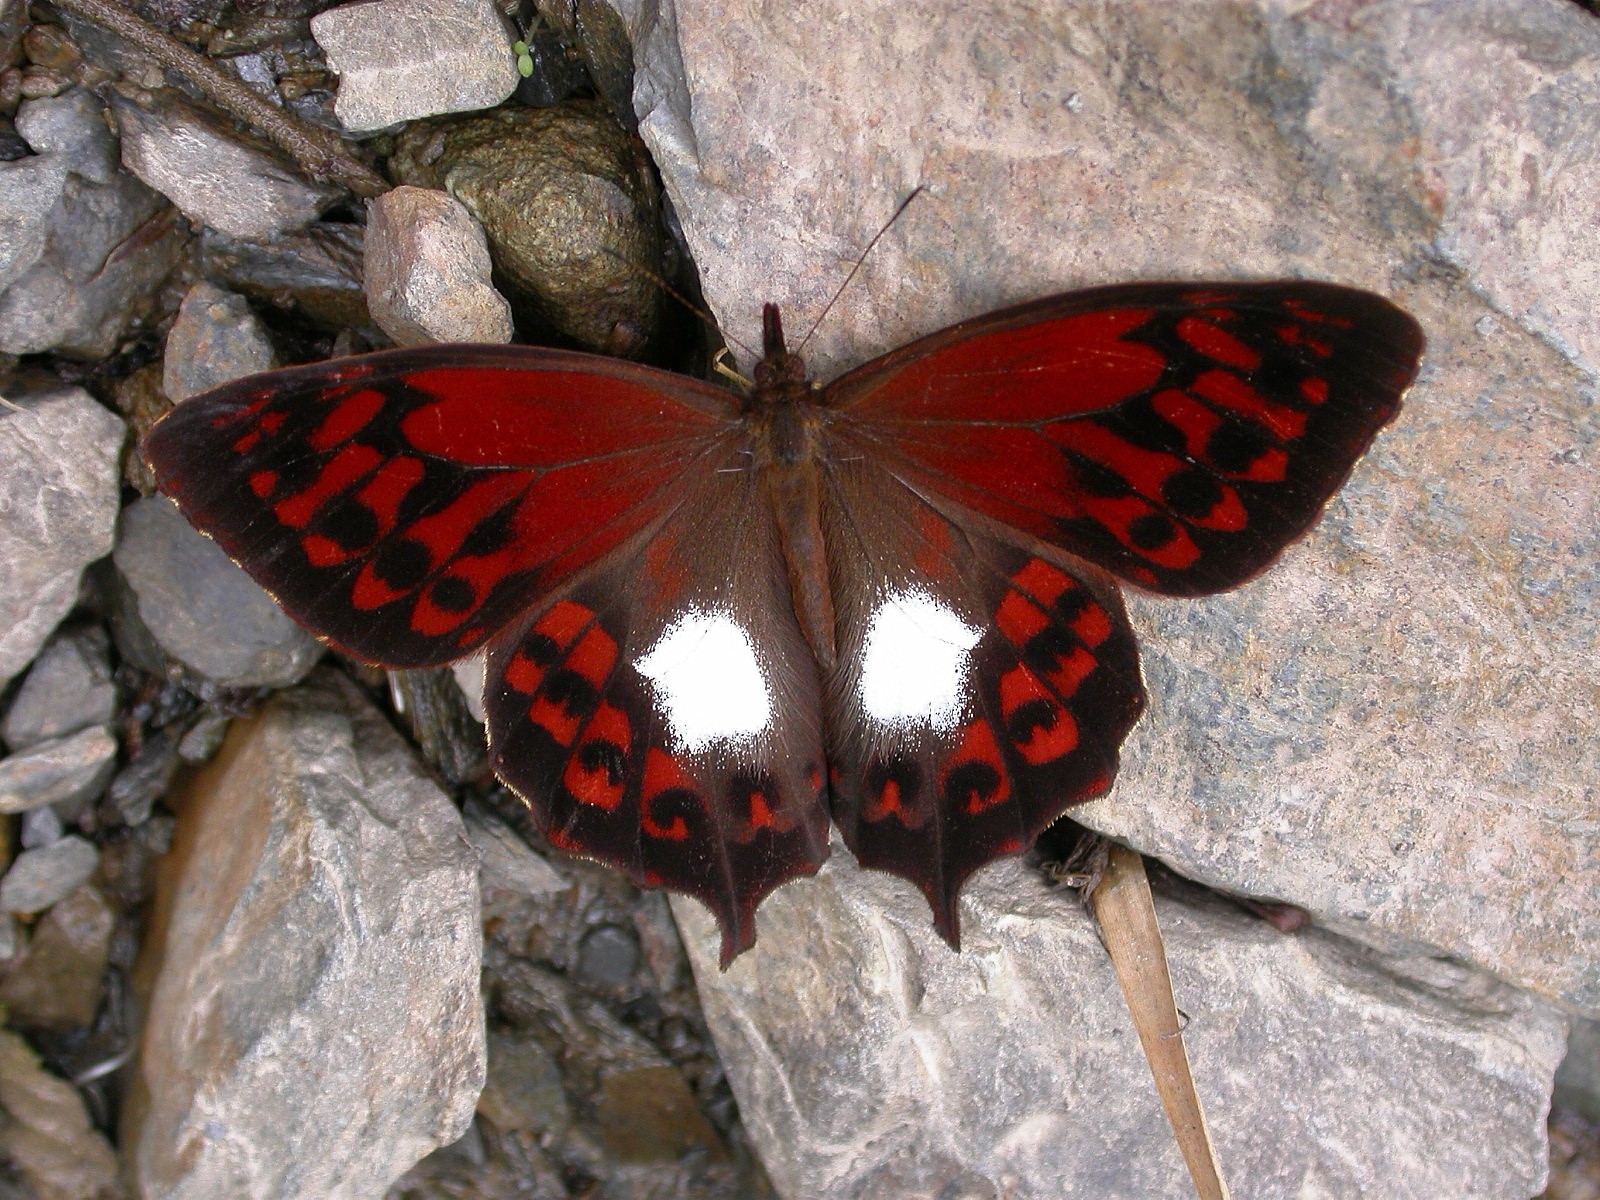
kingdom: Animalia
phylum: Arthropoda
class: Insecta
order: Lepidoptera
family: Nymphalidae
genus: Lasiophila
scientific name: Lasiophila piscina
